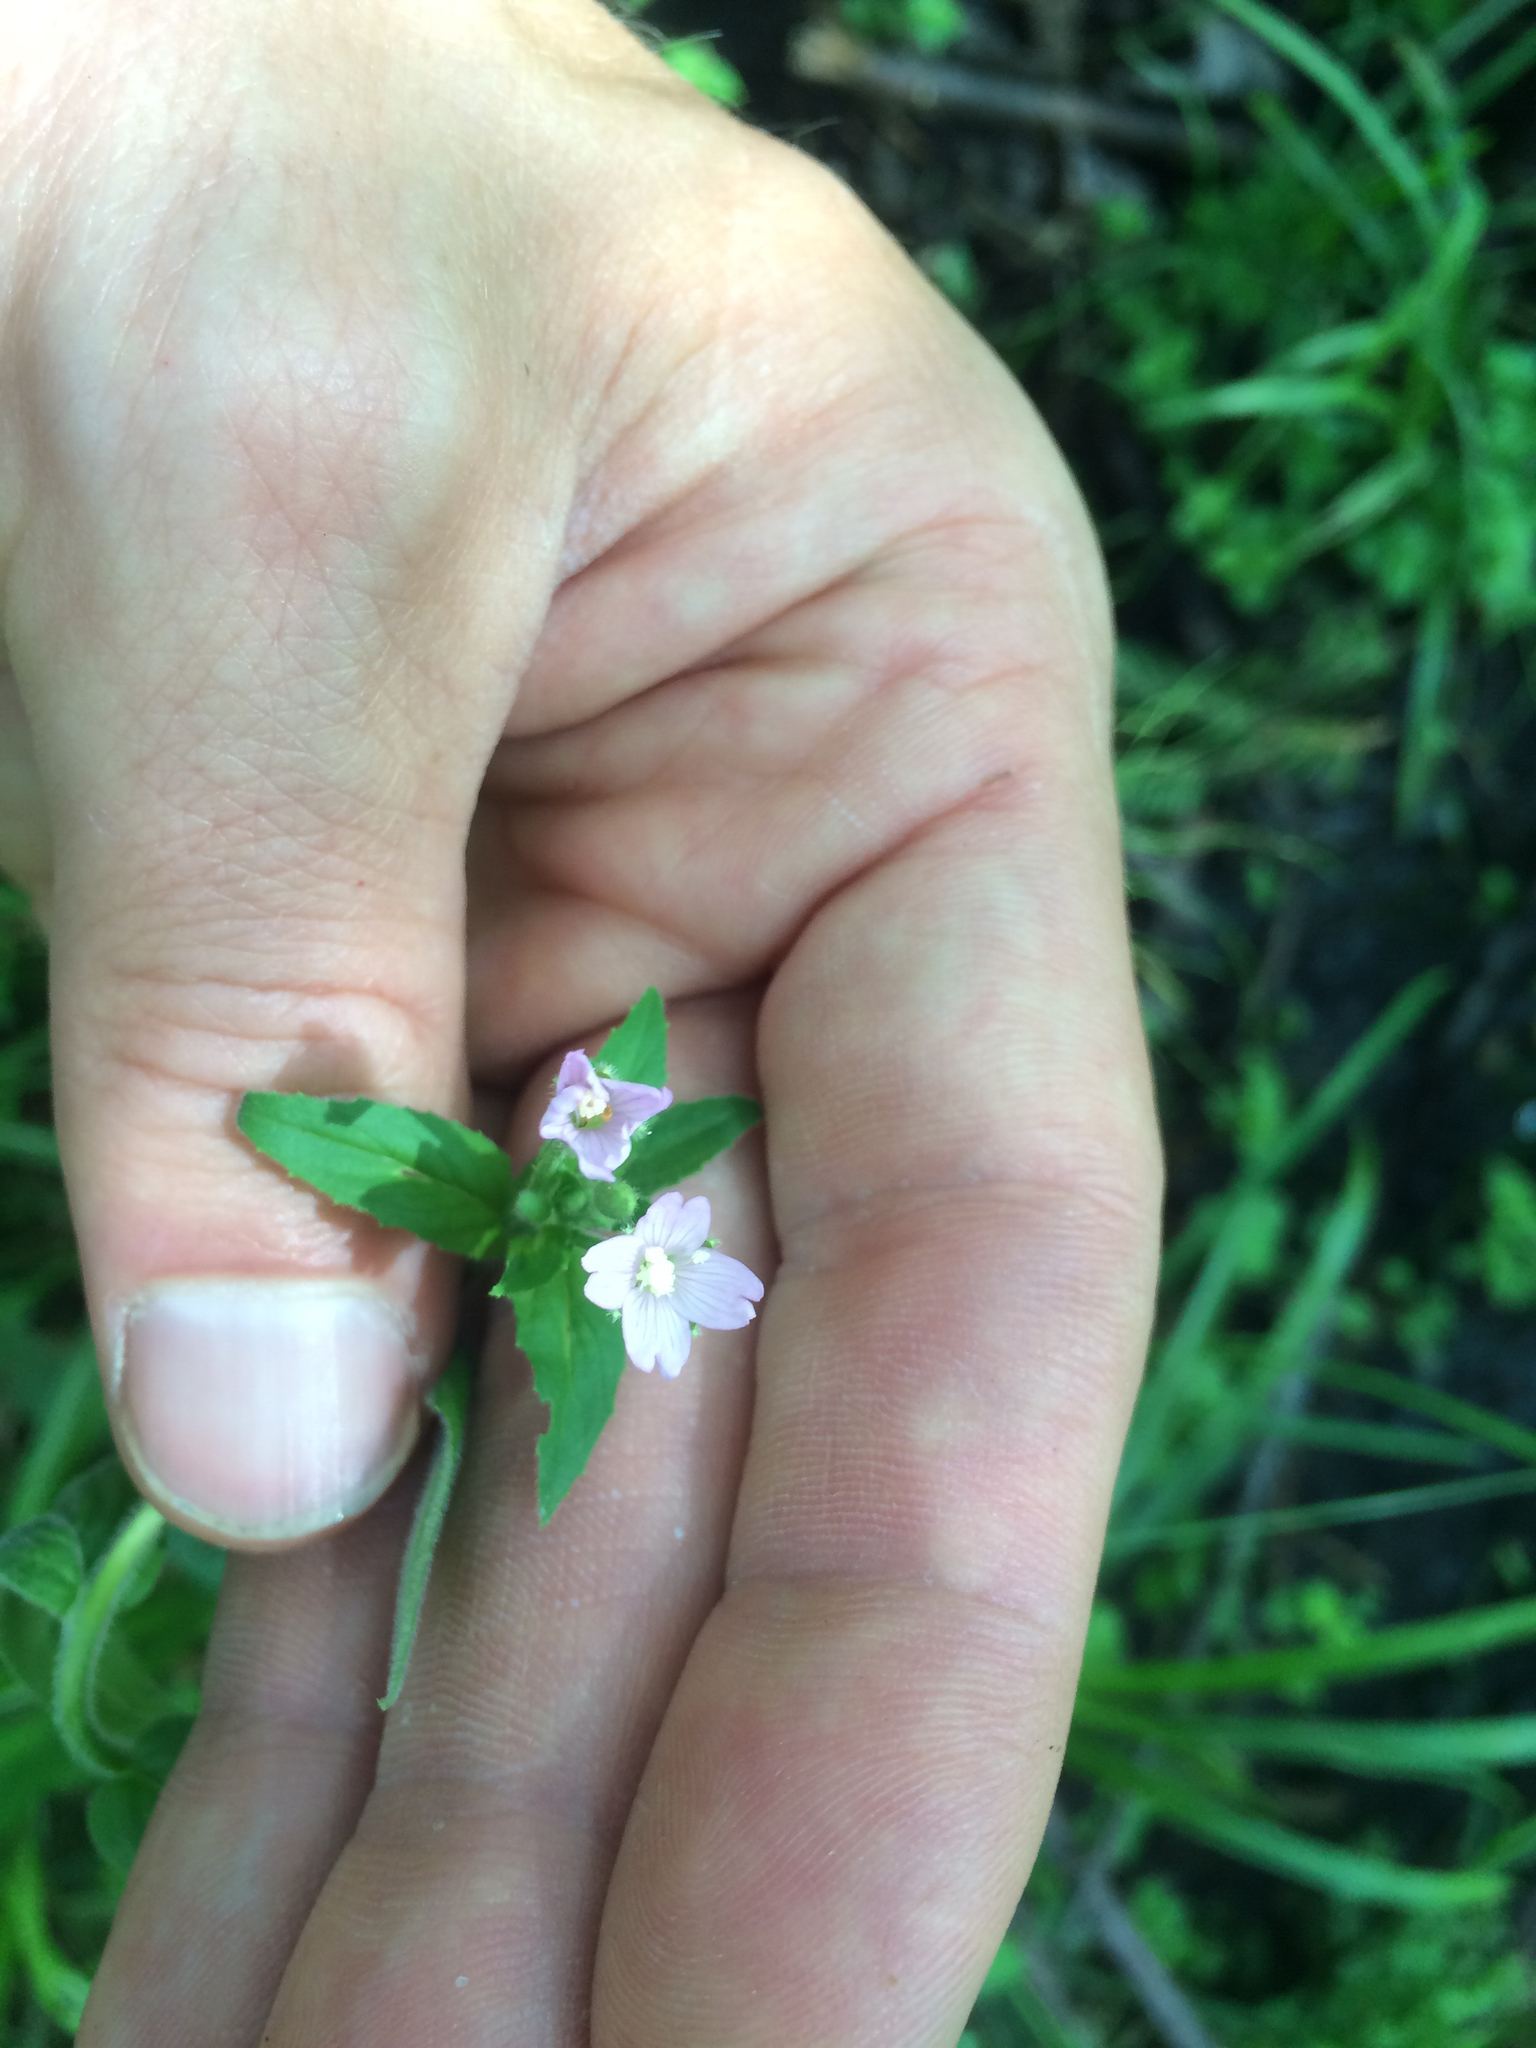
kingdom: Plantae
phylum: Tracheophyta
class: Magnoliopsida
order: Myrtales
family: Onagraceae
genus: Epilobium
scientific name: Epilobium parviflorum
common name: Hoary willowherb
